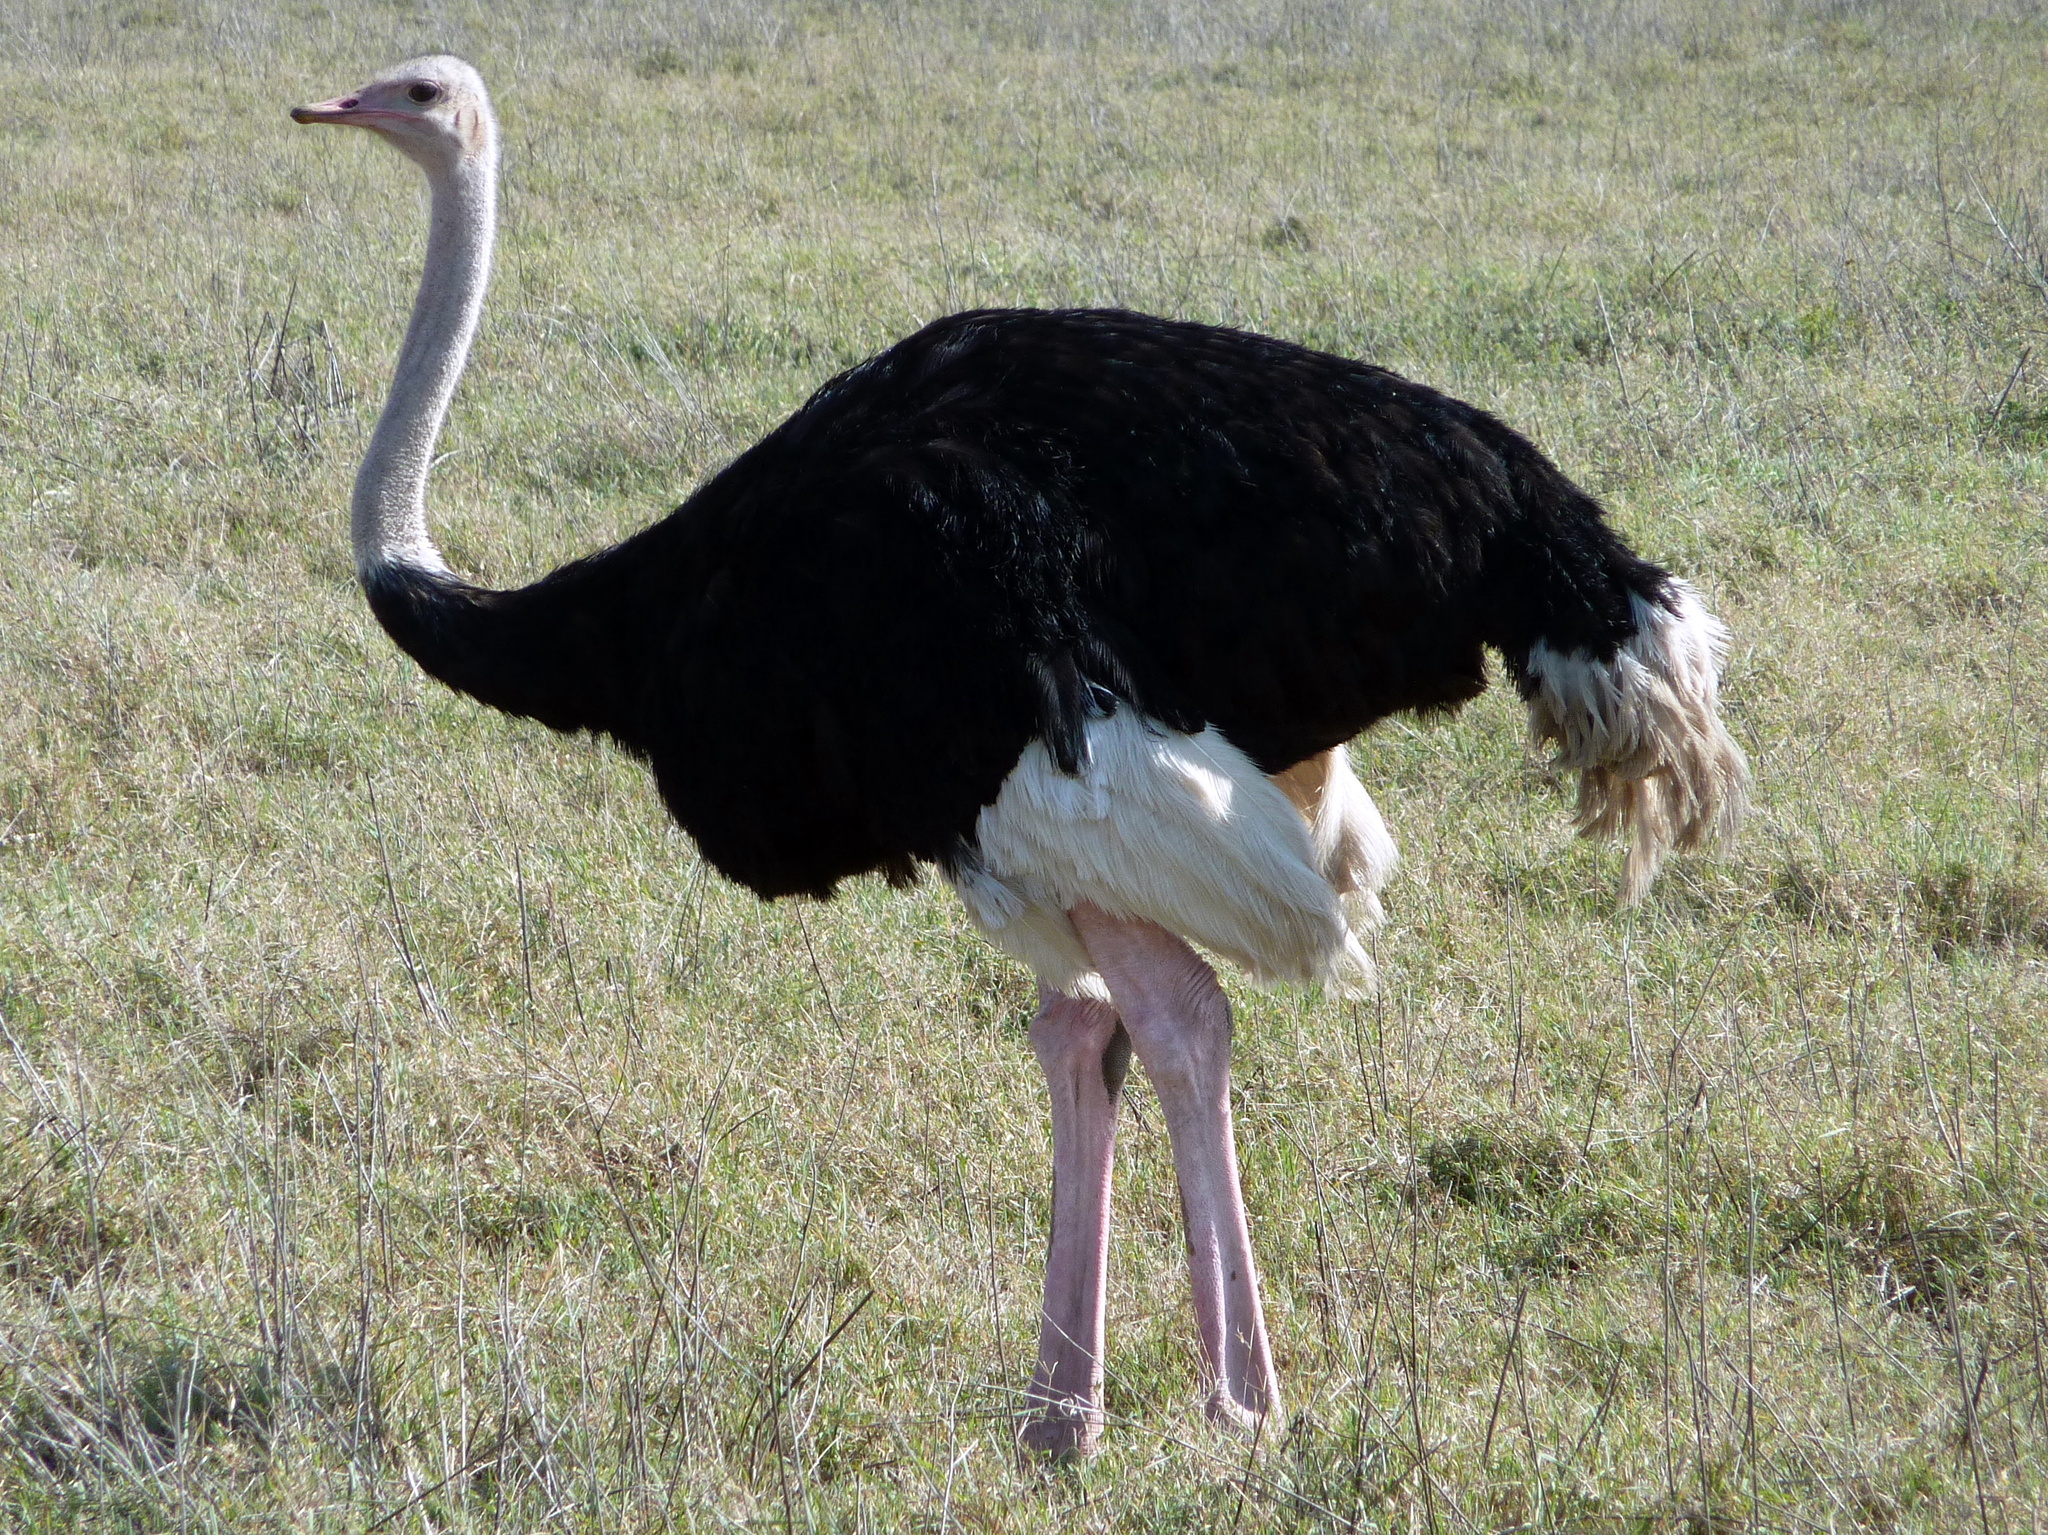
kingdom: Animalia
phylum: Chordata
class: Aves
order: Struthioniformes
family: Struthionidae
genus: Struthio
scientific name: Struthio camelus
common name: Common ostrich
